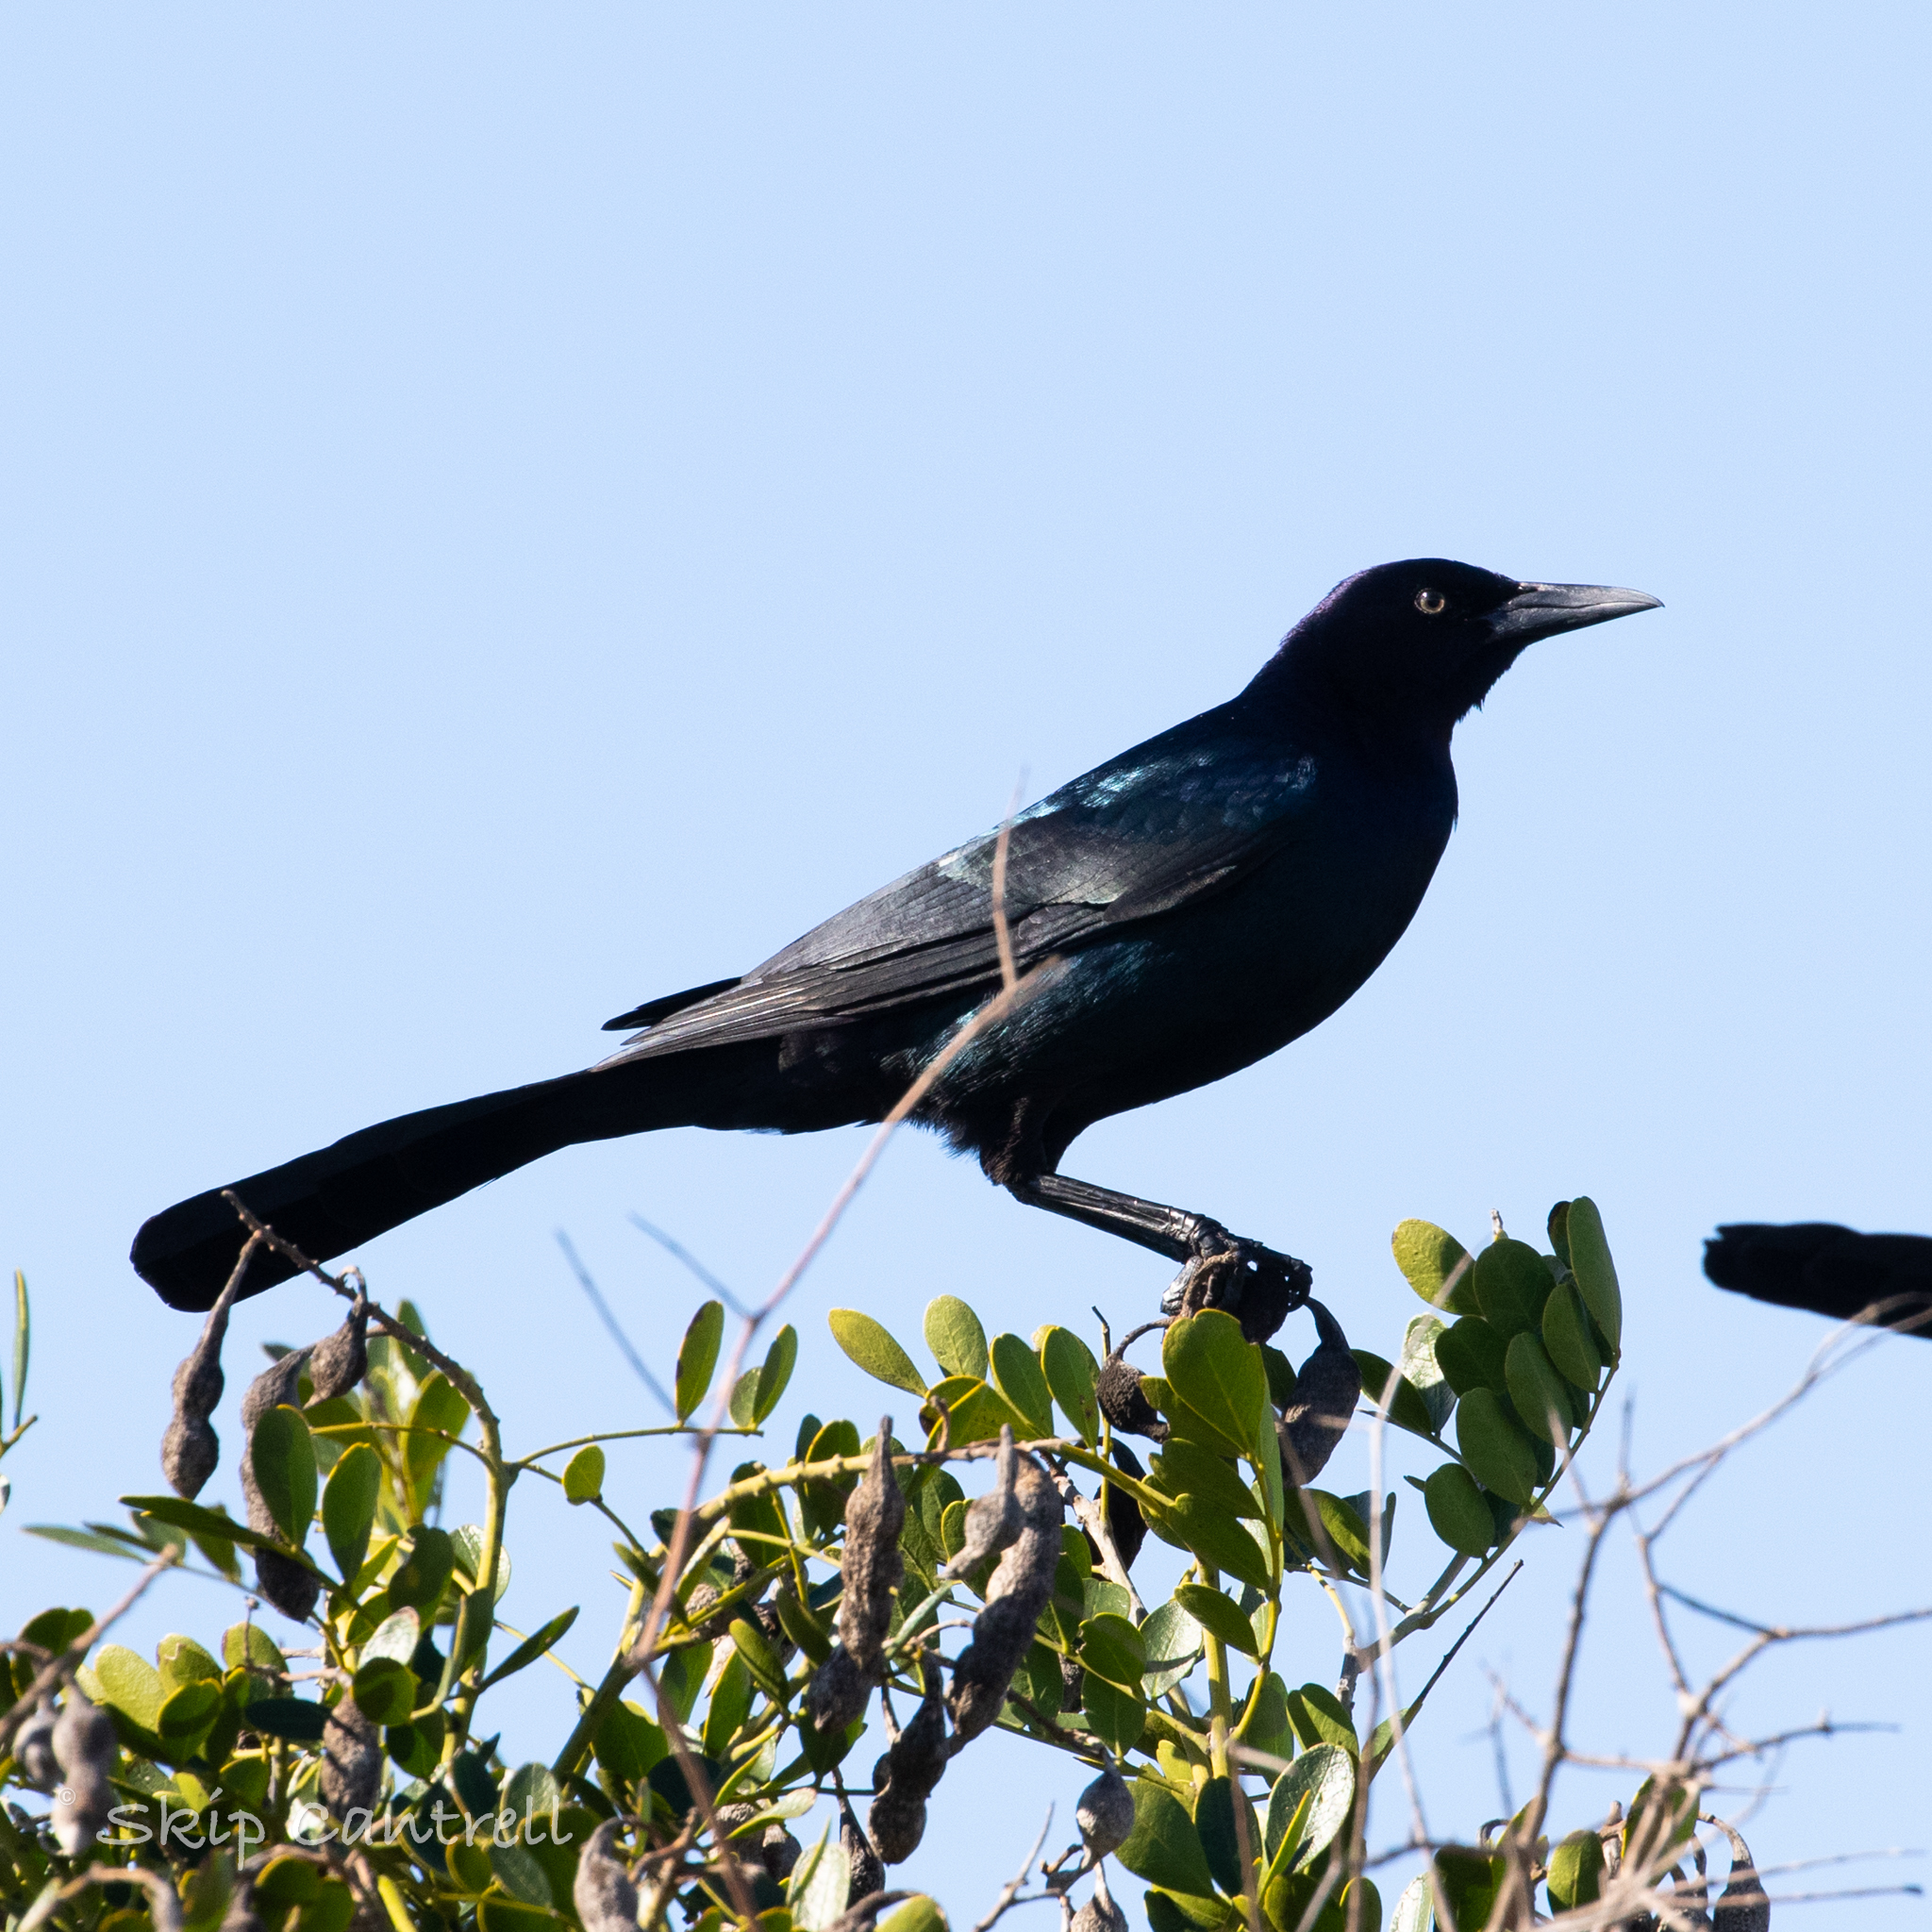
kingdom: Animalia
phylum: Chordata
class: Aves
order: Passeriformes
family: Icteridae
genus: Quiscalus
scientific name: Quiscalus major
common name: Boat-tailed grackle
